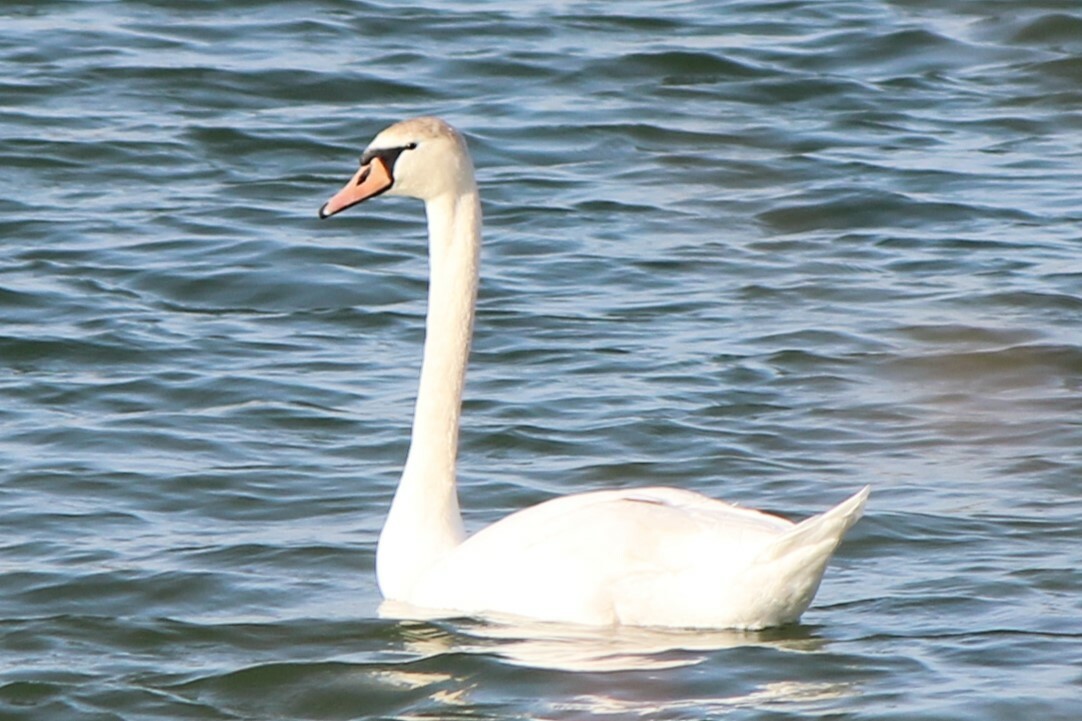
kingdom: Animalia
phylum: Chordata
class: Aves
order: Anseriformes
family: Anatidae
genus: Cygnus
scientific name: Cygnus olor
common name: Mute swan
